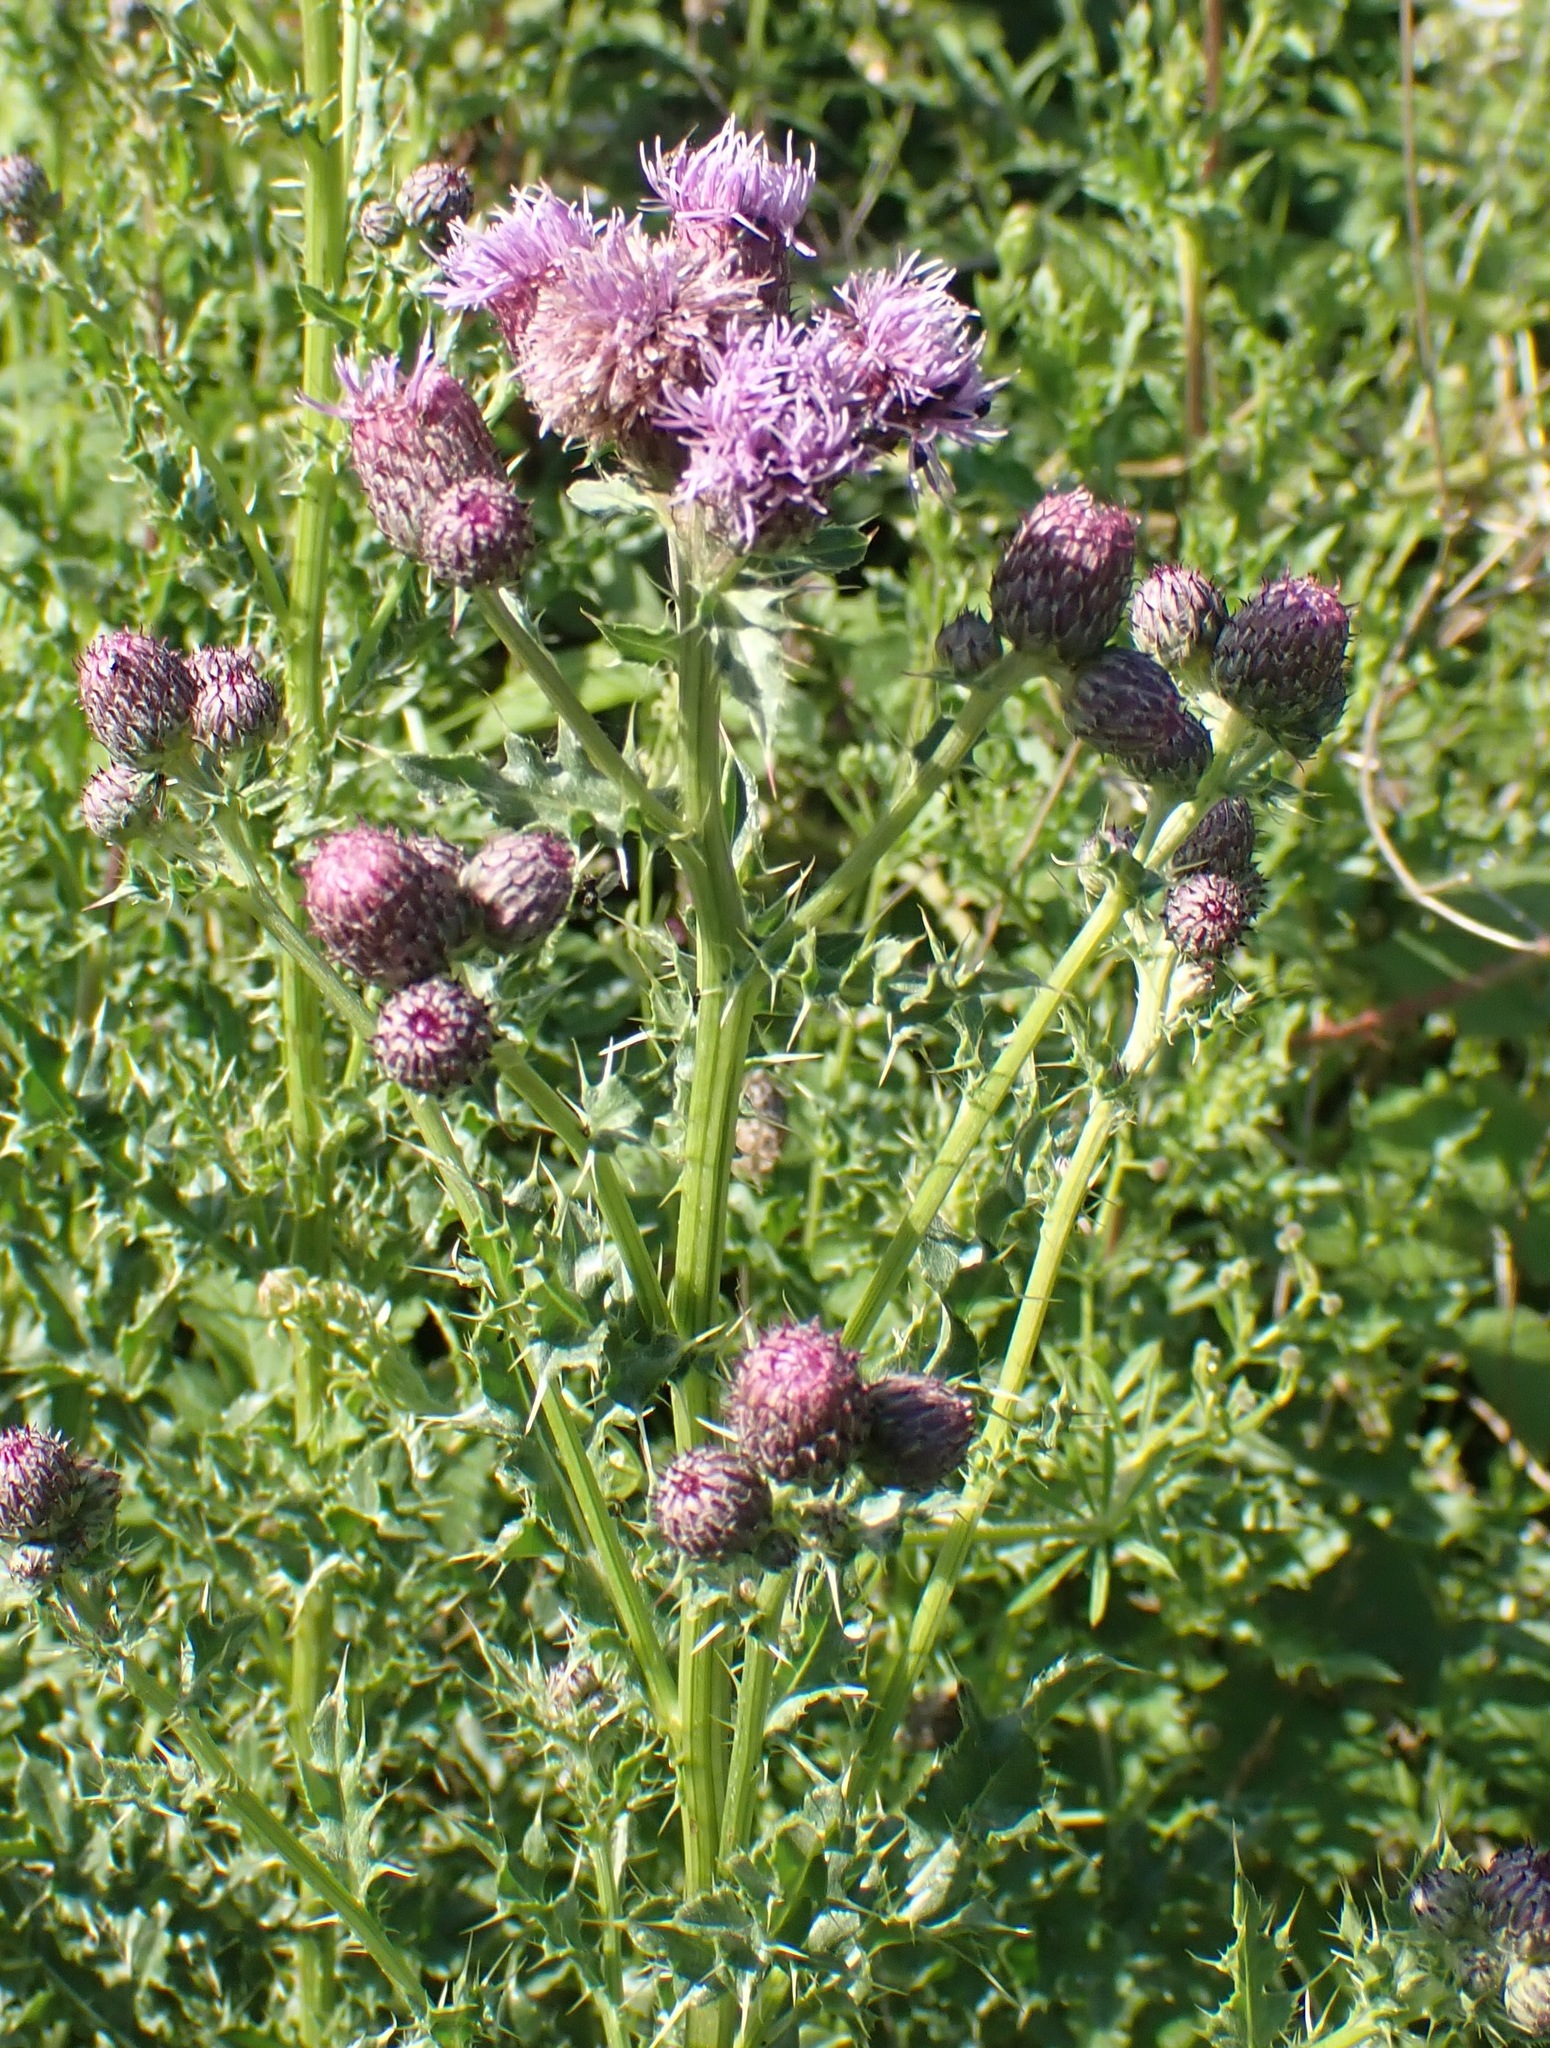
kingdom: Plantae
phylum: Tracheophyta
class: Magnoliopsida
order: Asterales
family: Asteraceae
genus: Cirsium
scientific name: Cirsium arvense
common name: Creeping thistle
